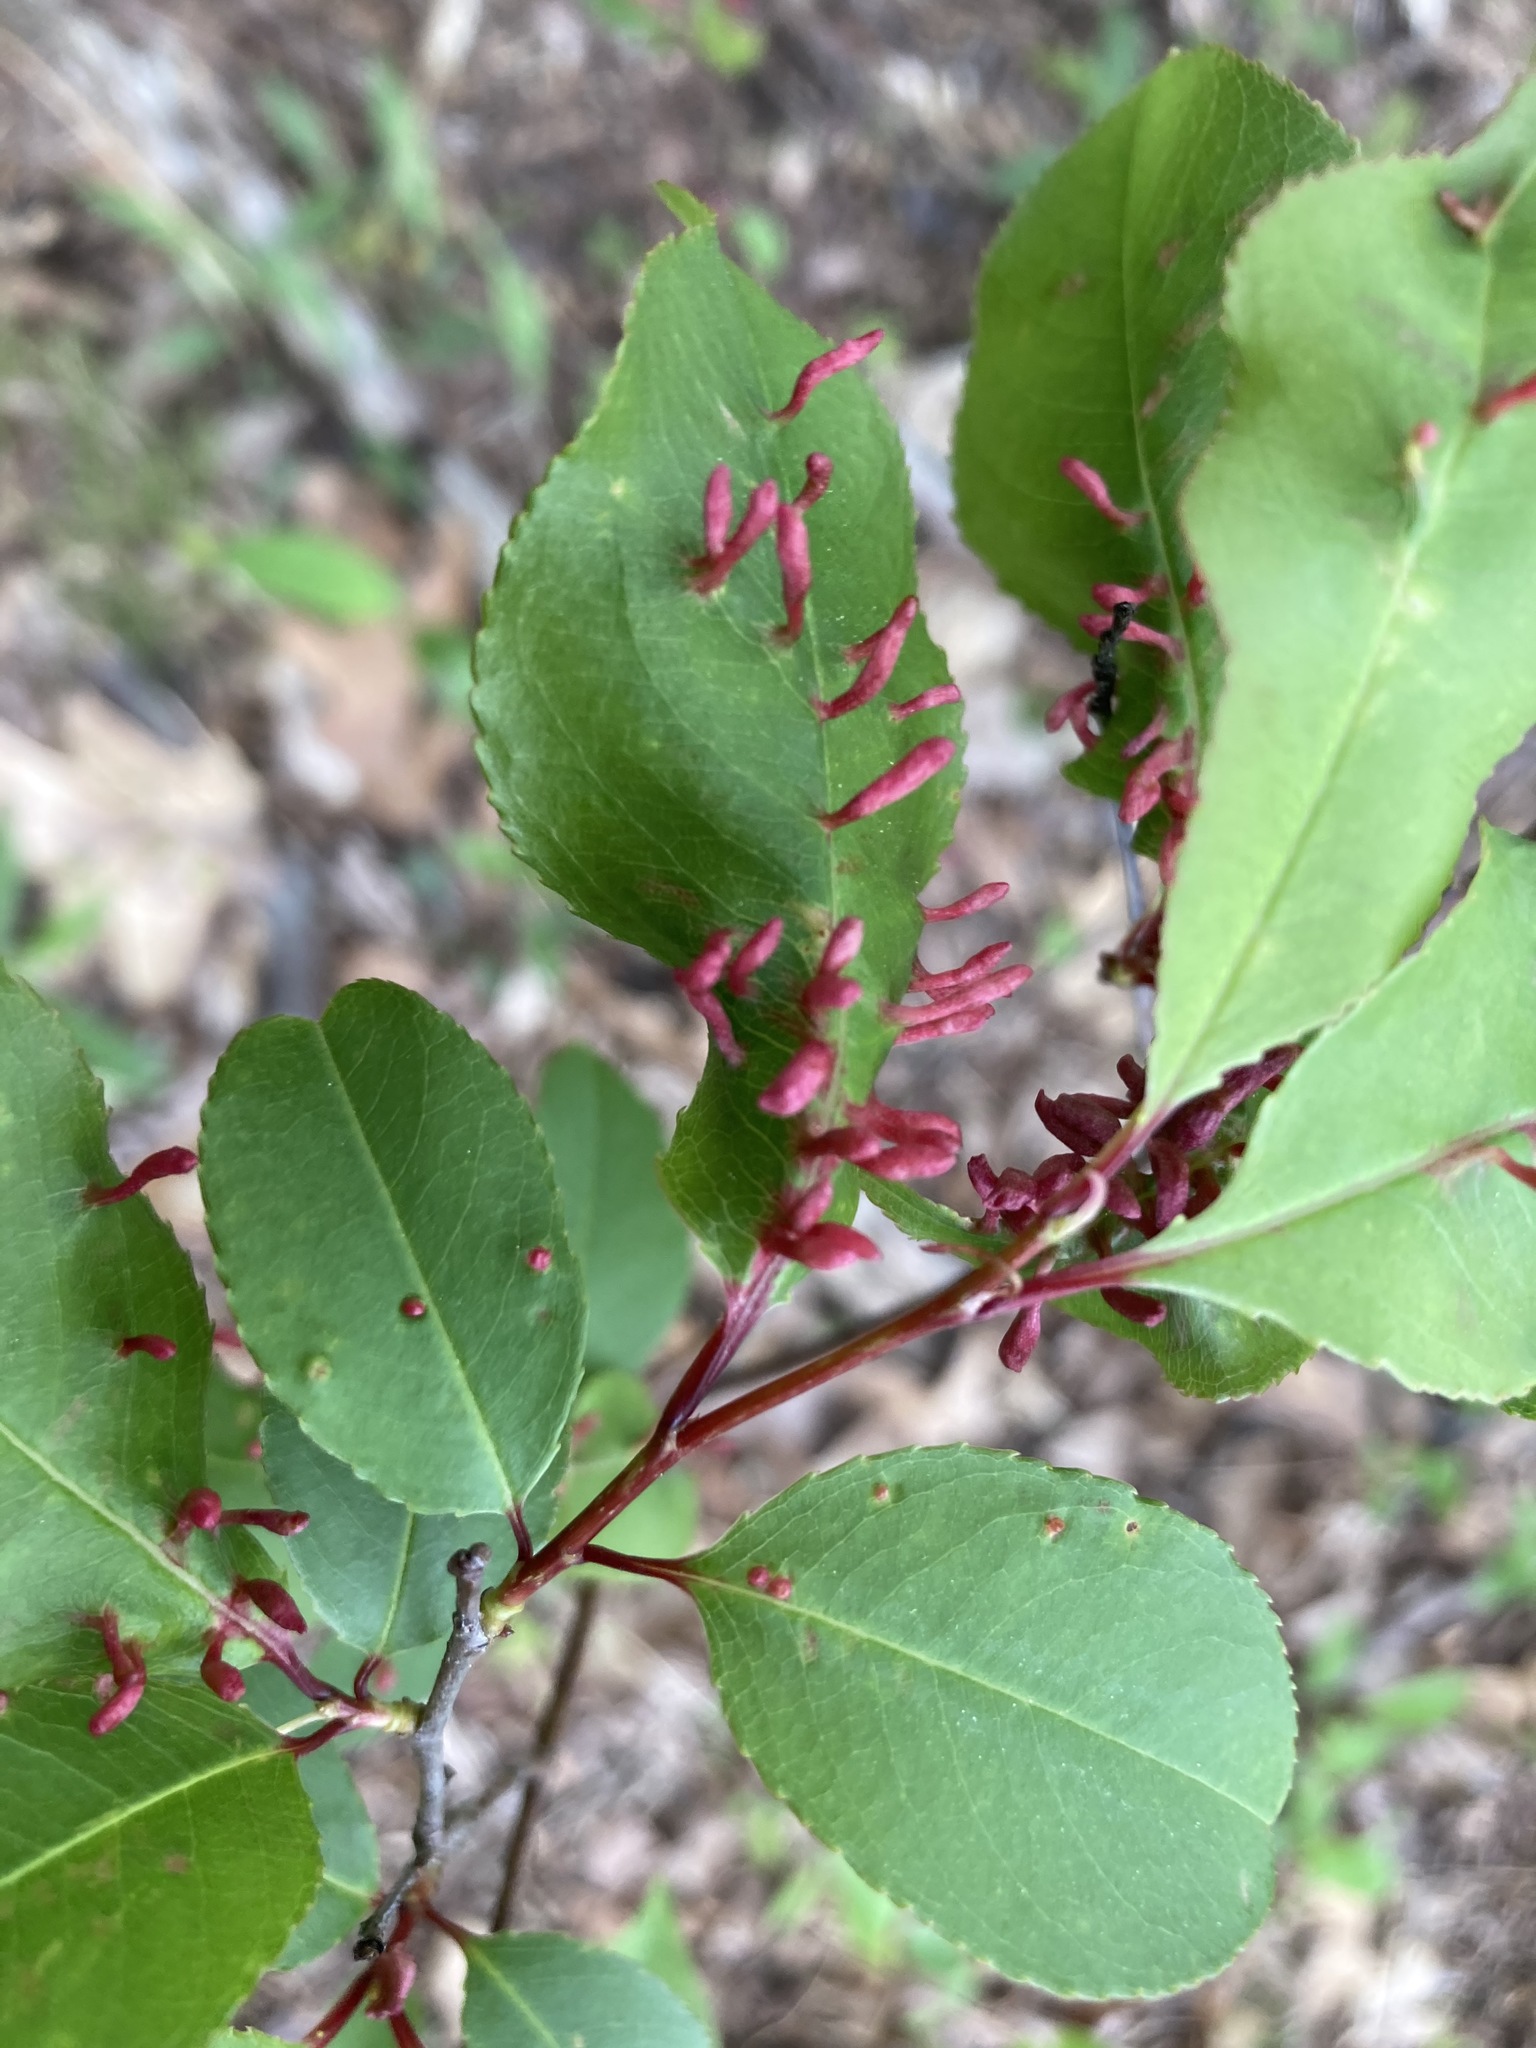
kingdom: Animalia
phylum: Arthropoda
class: Arachnida
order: Trombidiformes
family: Eriophyidae
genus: Eriophyes
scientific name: Eriophyes
